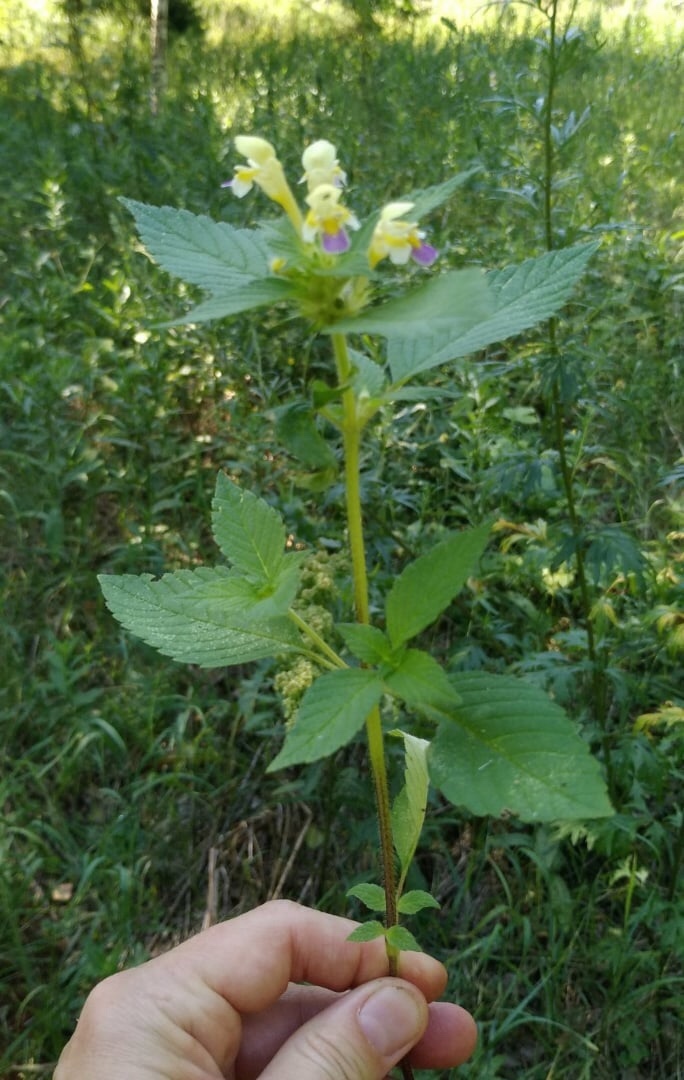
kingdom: Plantae
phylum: Tracheophyta
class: Magnoliopsida
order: Lamiales
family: Lamiaceae
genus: Galeopsis
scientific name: Galeopsis speciosa
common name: Large-flowered hemp-nettle
